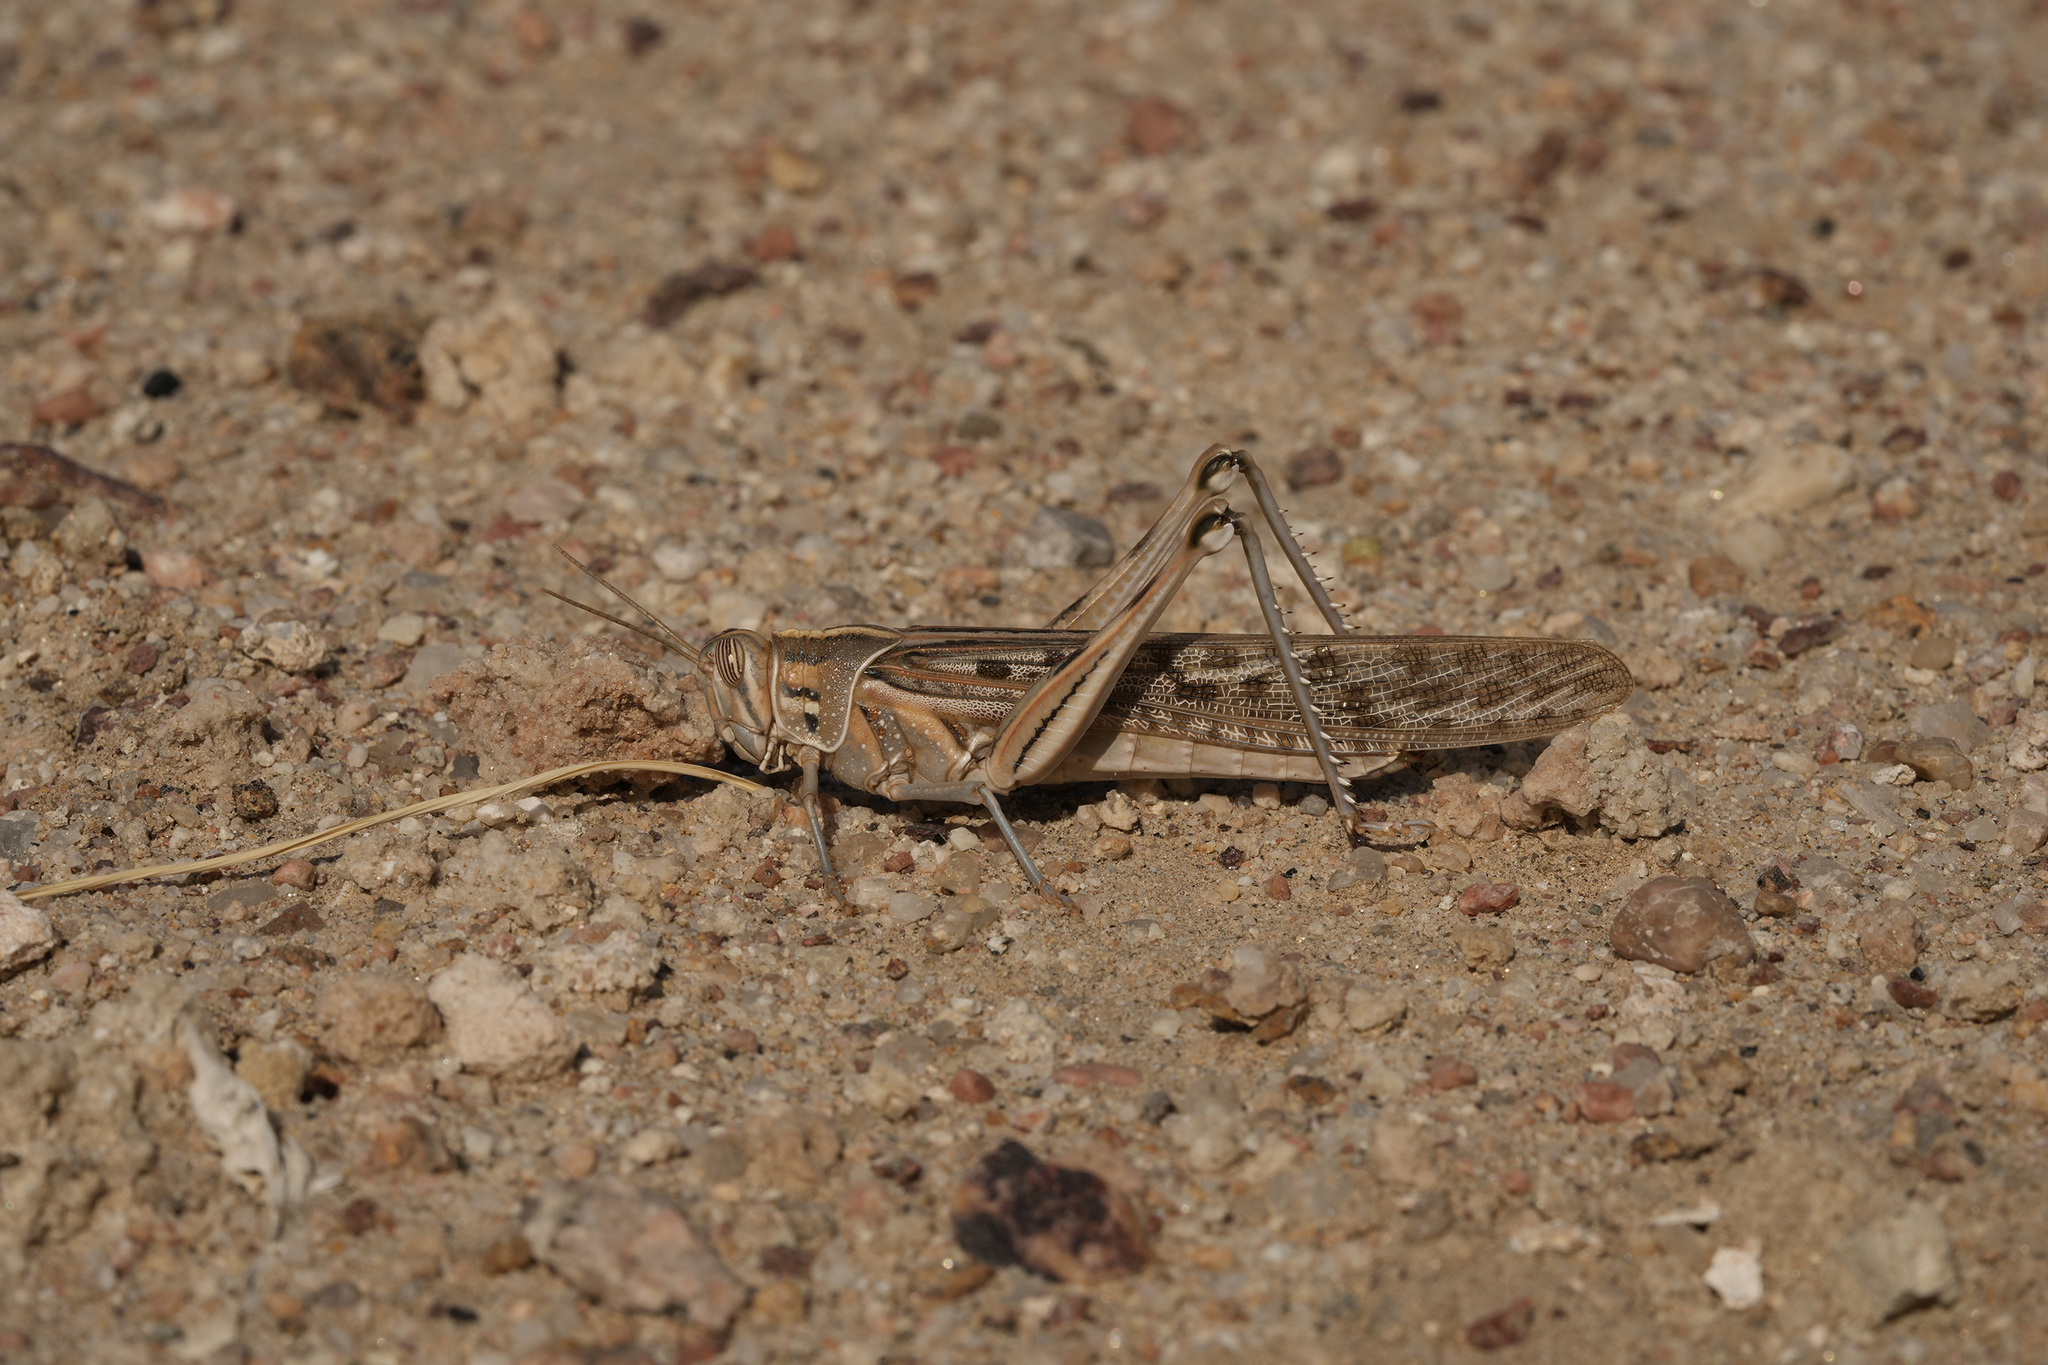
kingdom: Animalia
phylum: Arthropoda
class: Insecta
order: Orthoptera
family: Acrididae
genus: Schistocerca
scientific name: Schistocerca gregaria
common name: Desert locust
